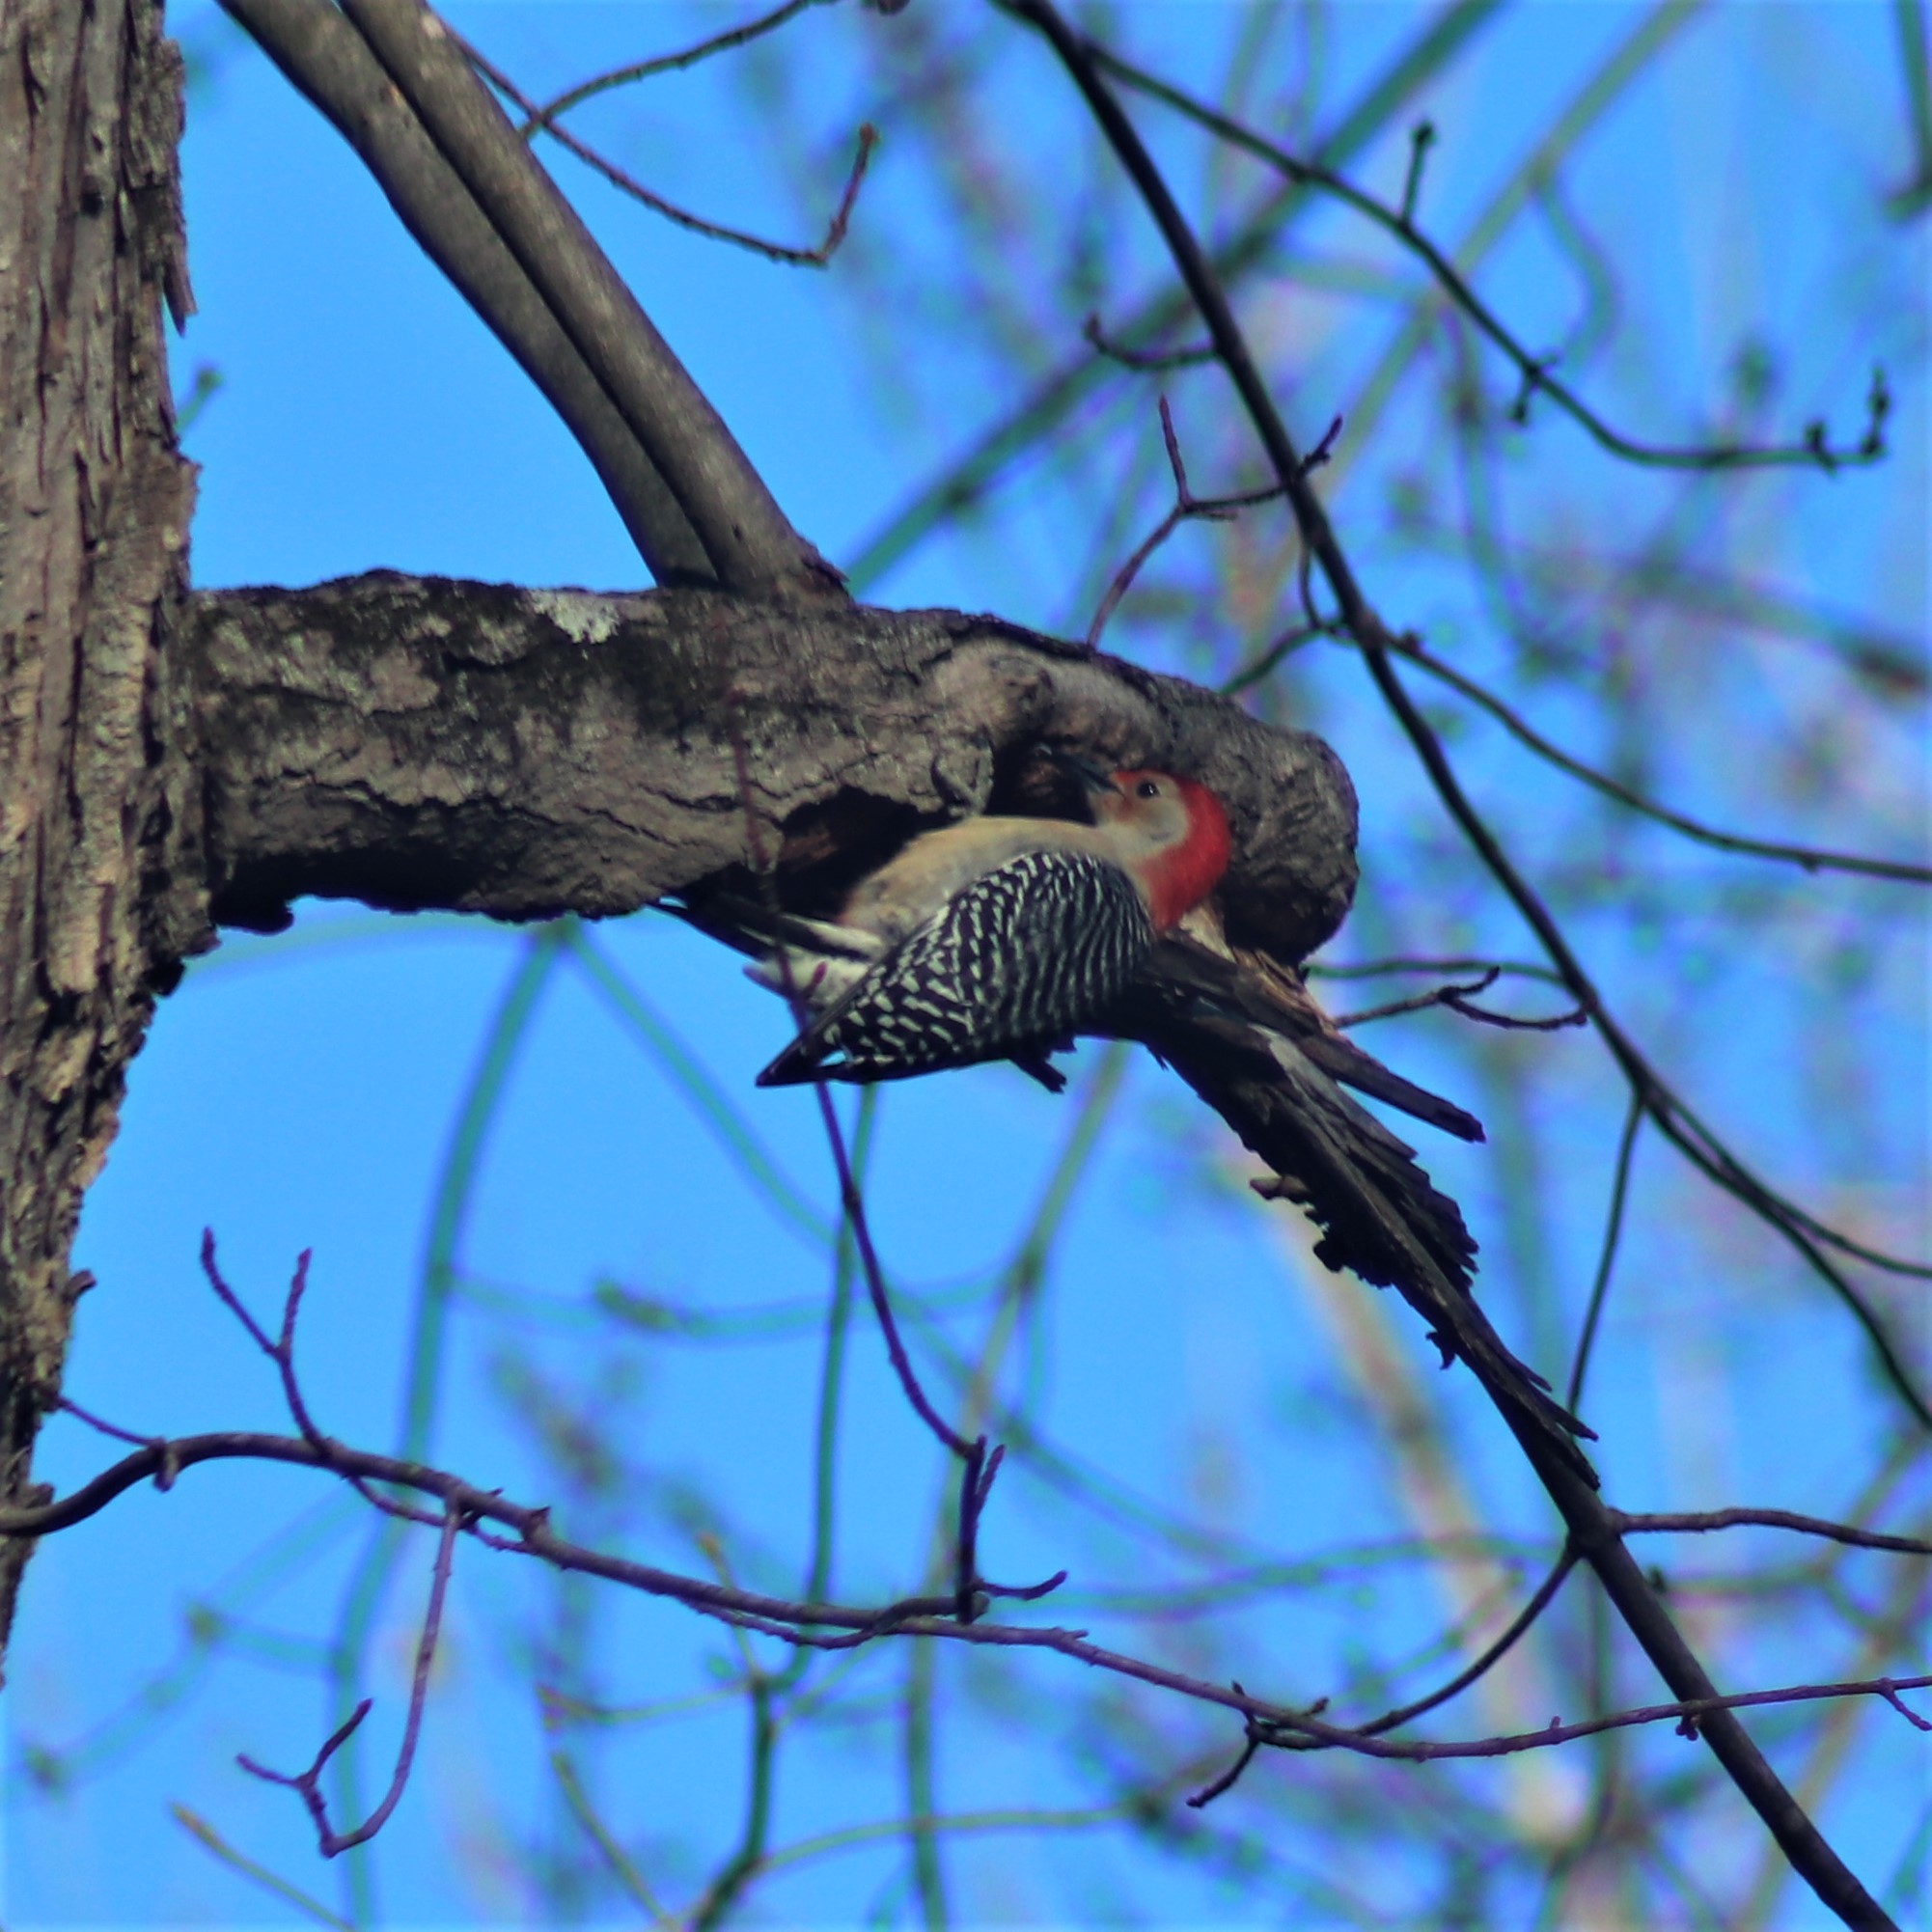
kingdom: Animalia
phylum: Chordata
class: Aves
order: Piciformes
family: Picidae
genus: Melanerpes
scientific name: Melanerpes carolinus
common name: Red-bellied woodpecker
